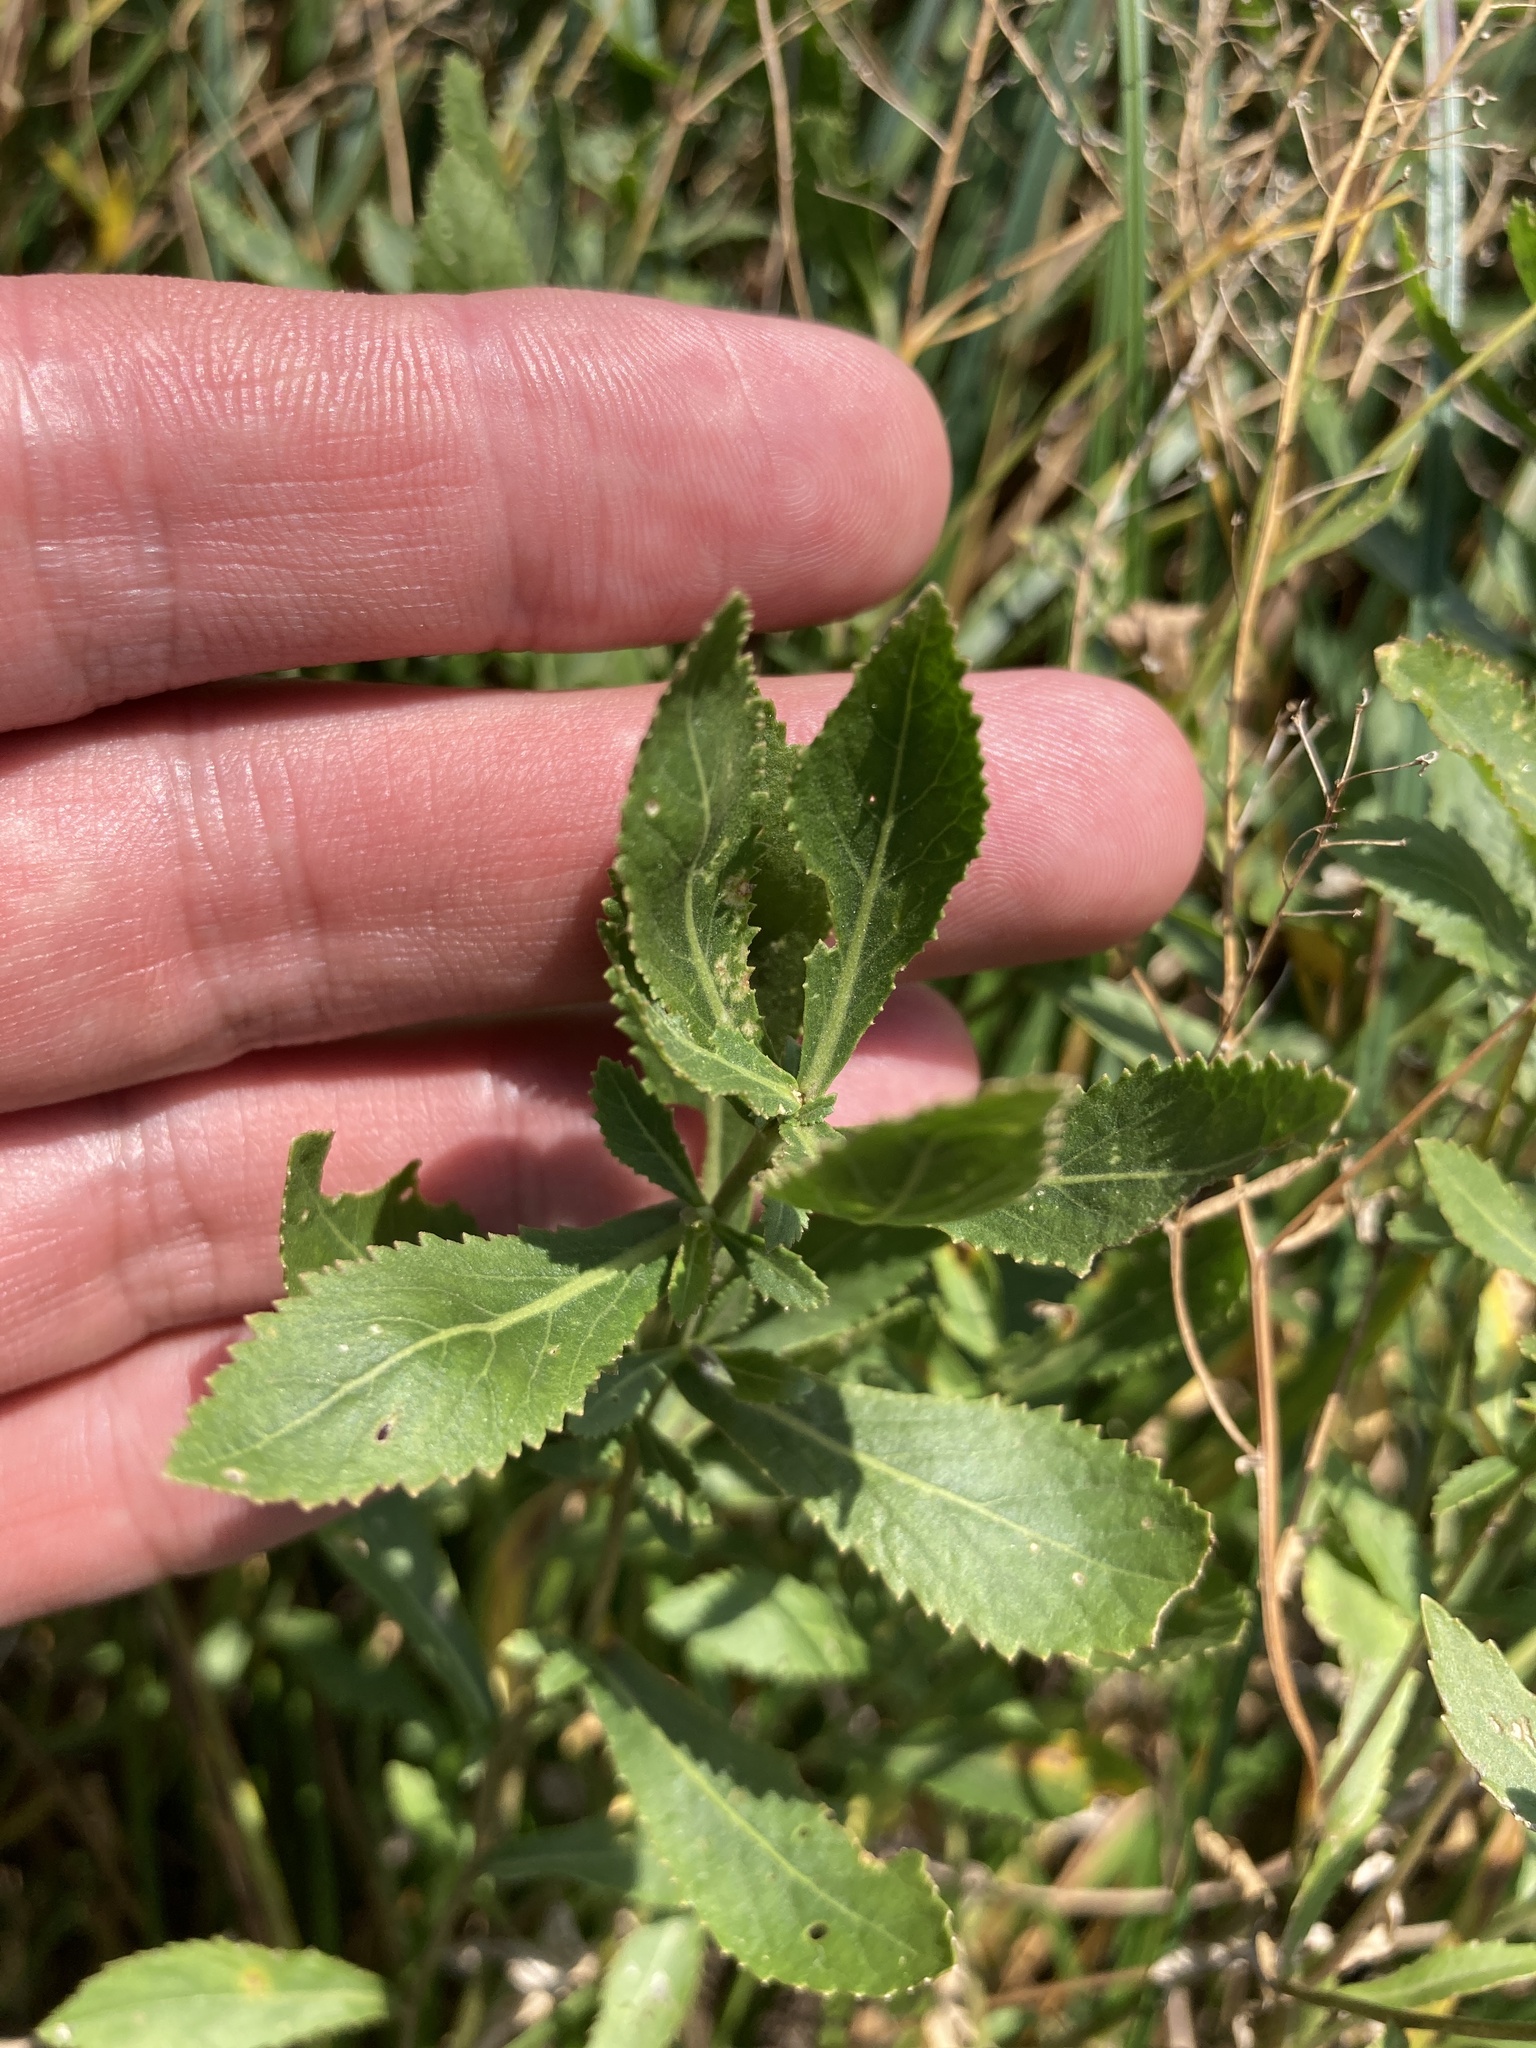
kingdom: Plantae
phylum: Tracheophyta
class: Magnoliopsida
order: Brassicales
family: Brassicaceae
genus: Rorippa
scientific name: Rorippa austriaca
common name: Austrian yellow-cress
